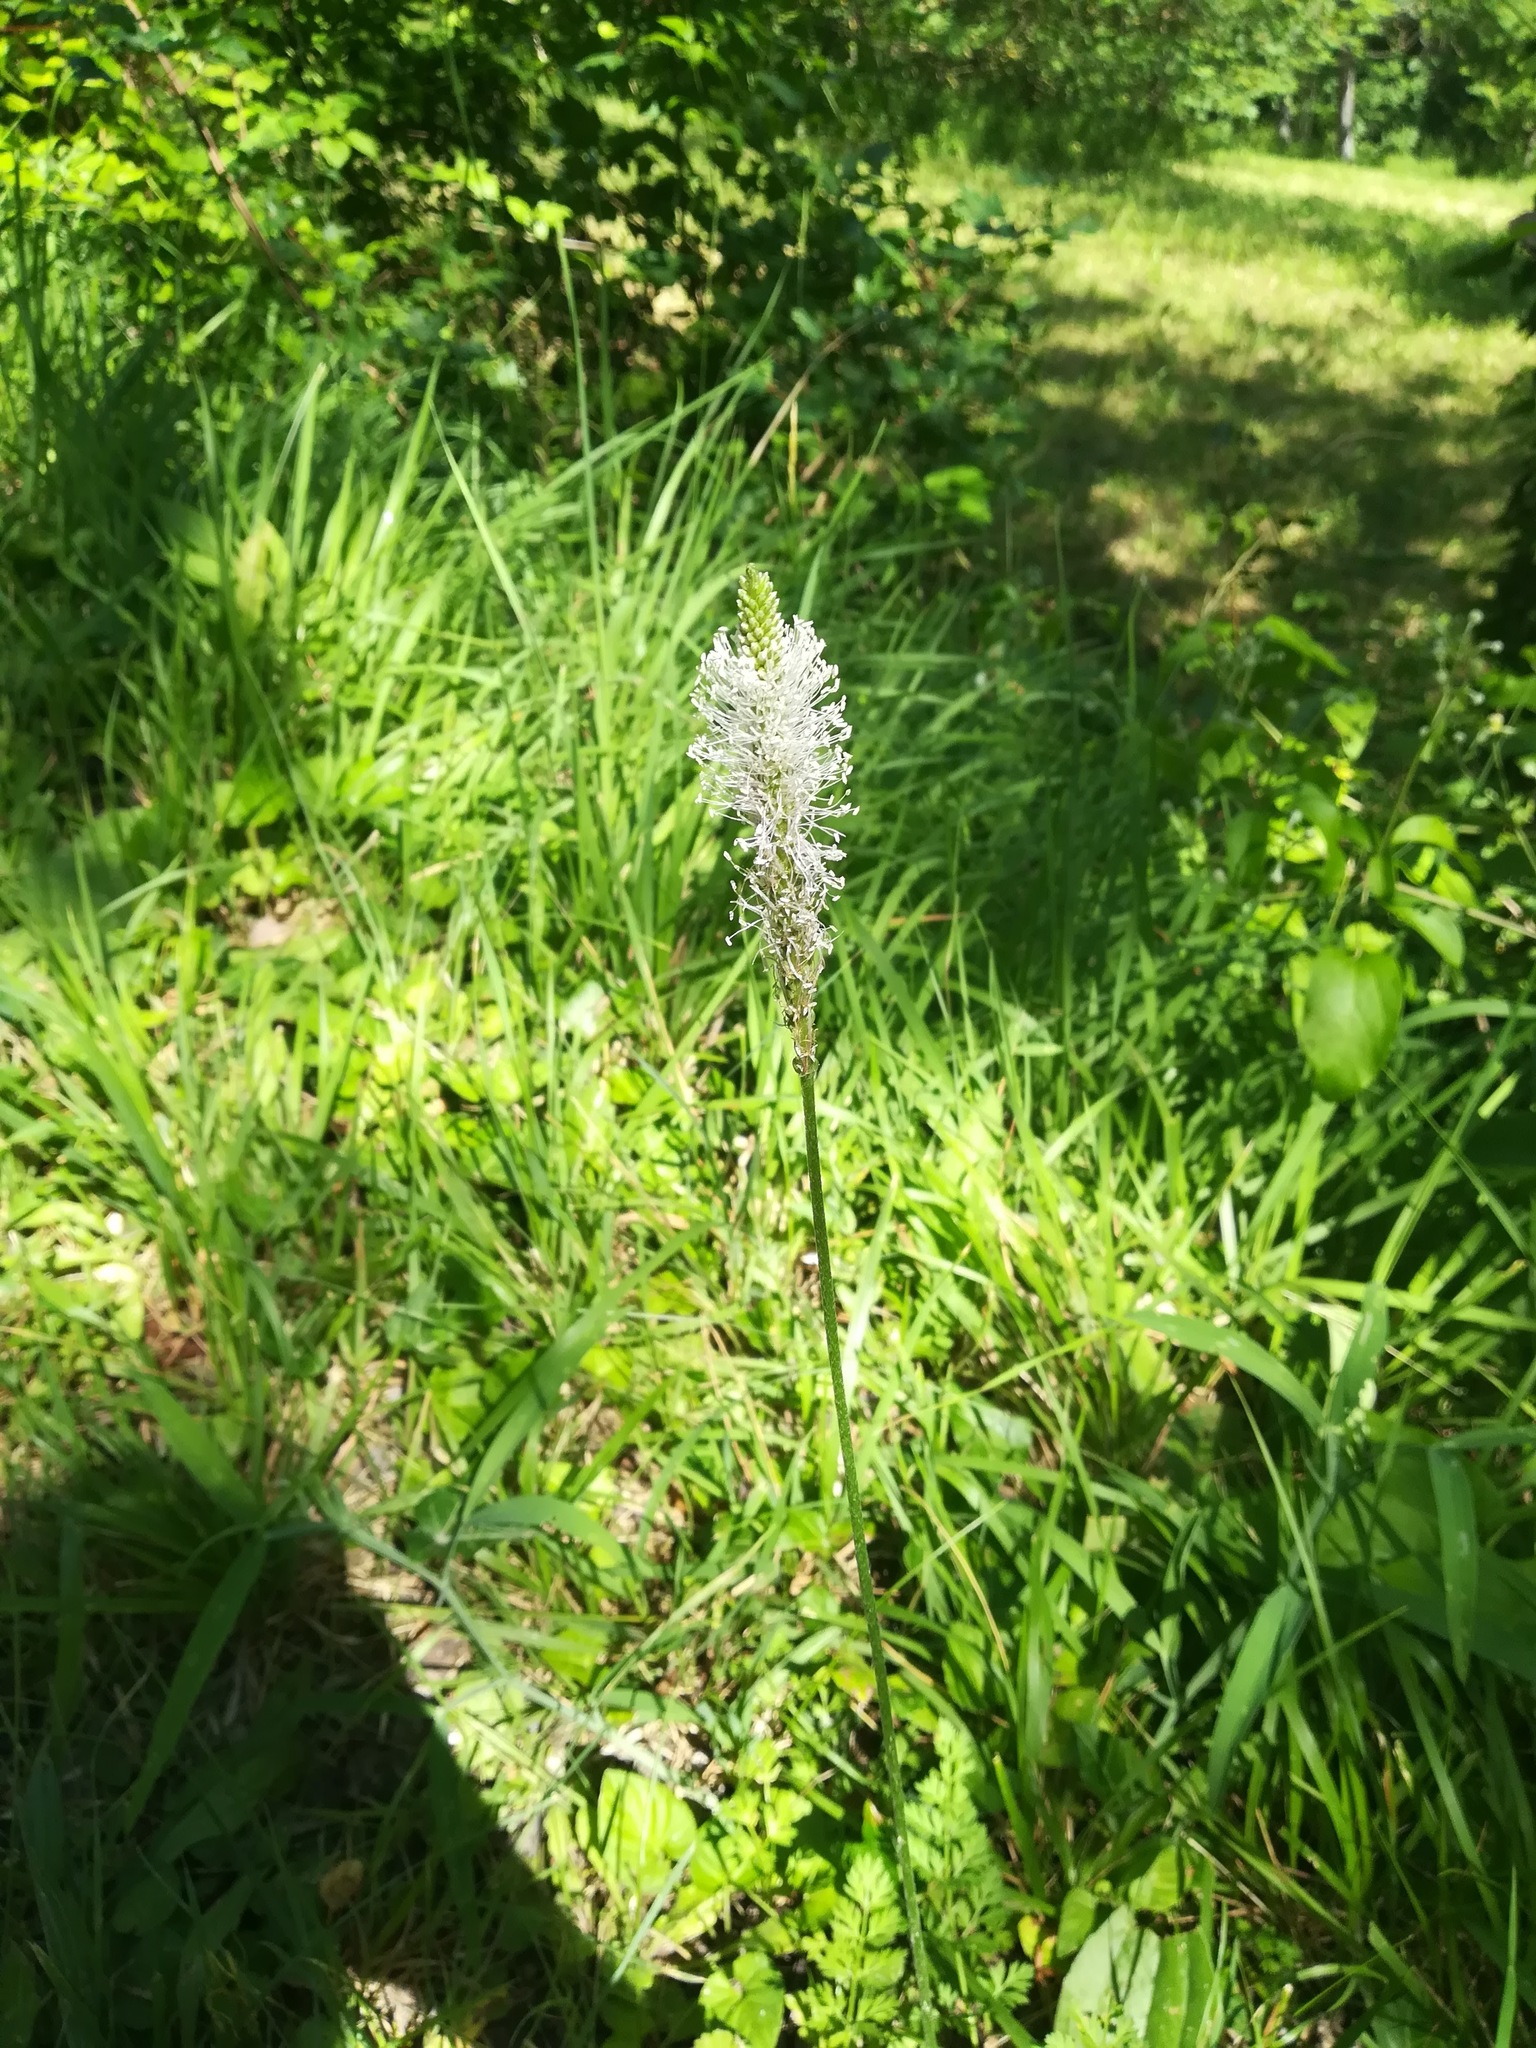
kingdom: Plantae
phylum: Tracheophyta
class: Magnoliopsida
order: Lamiales
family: Plantaginaceae
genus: Plantago
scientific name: Plantago media
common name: Hoary plantain
